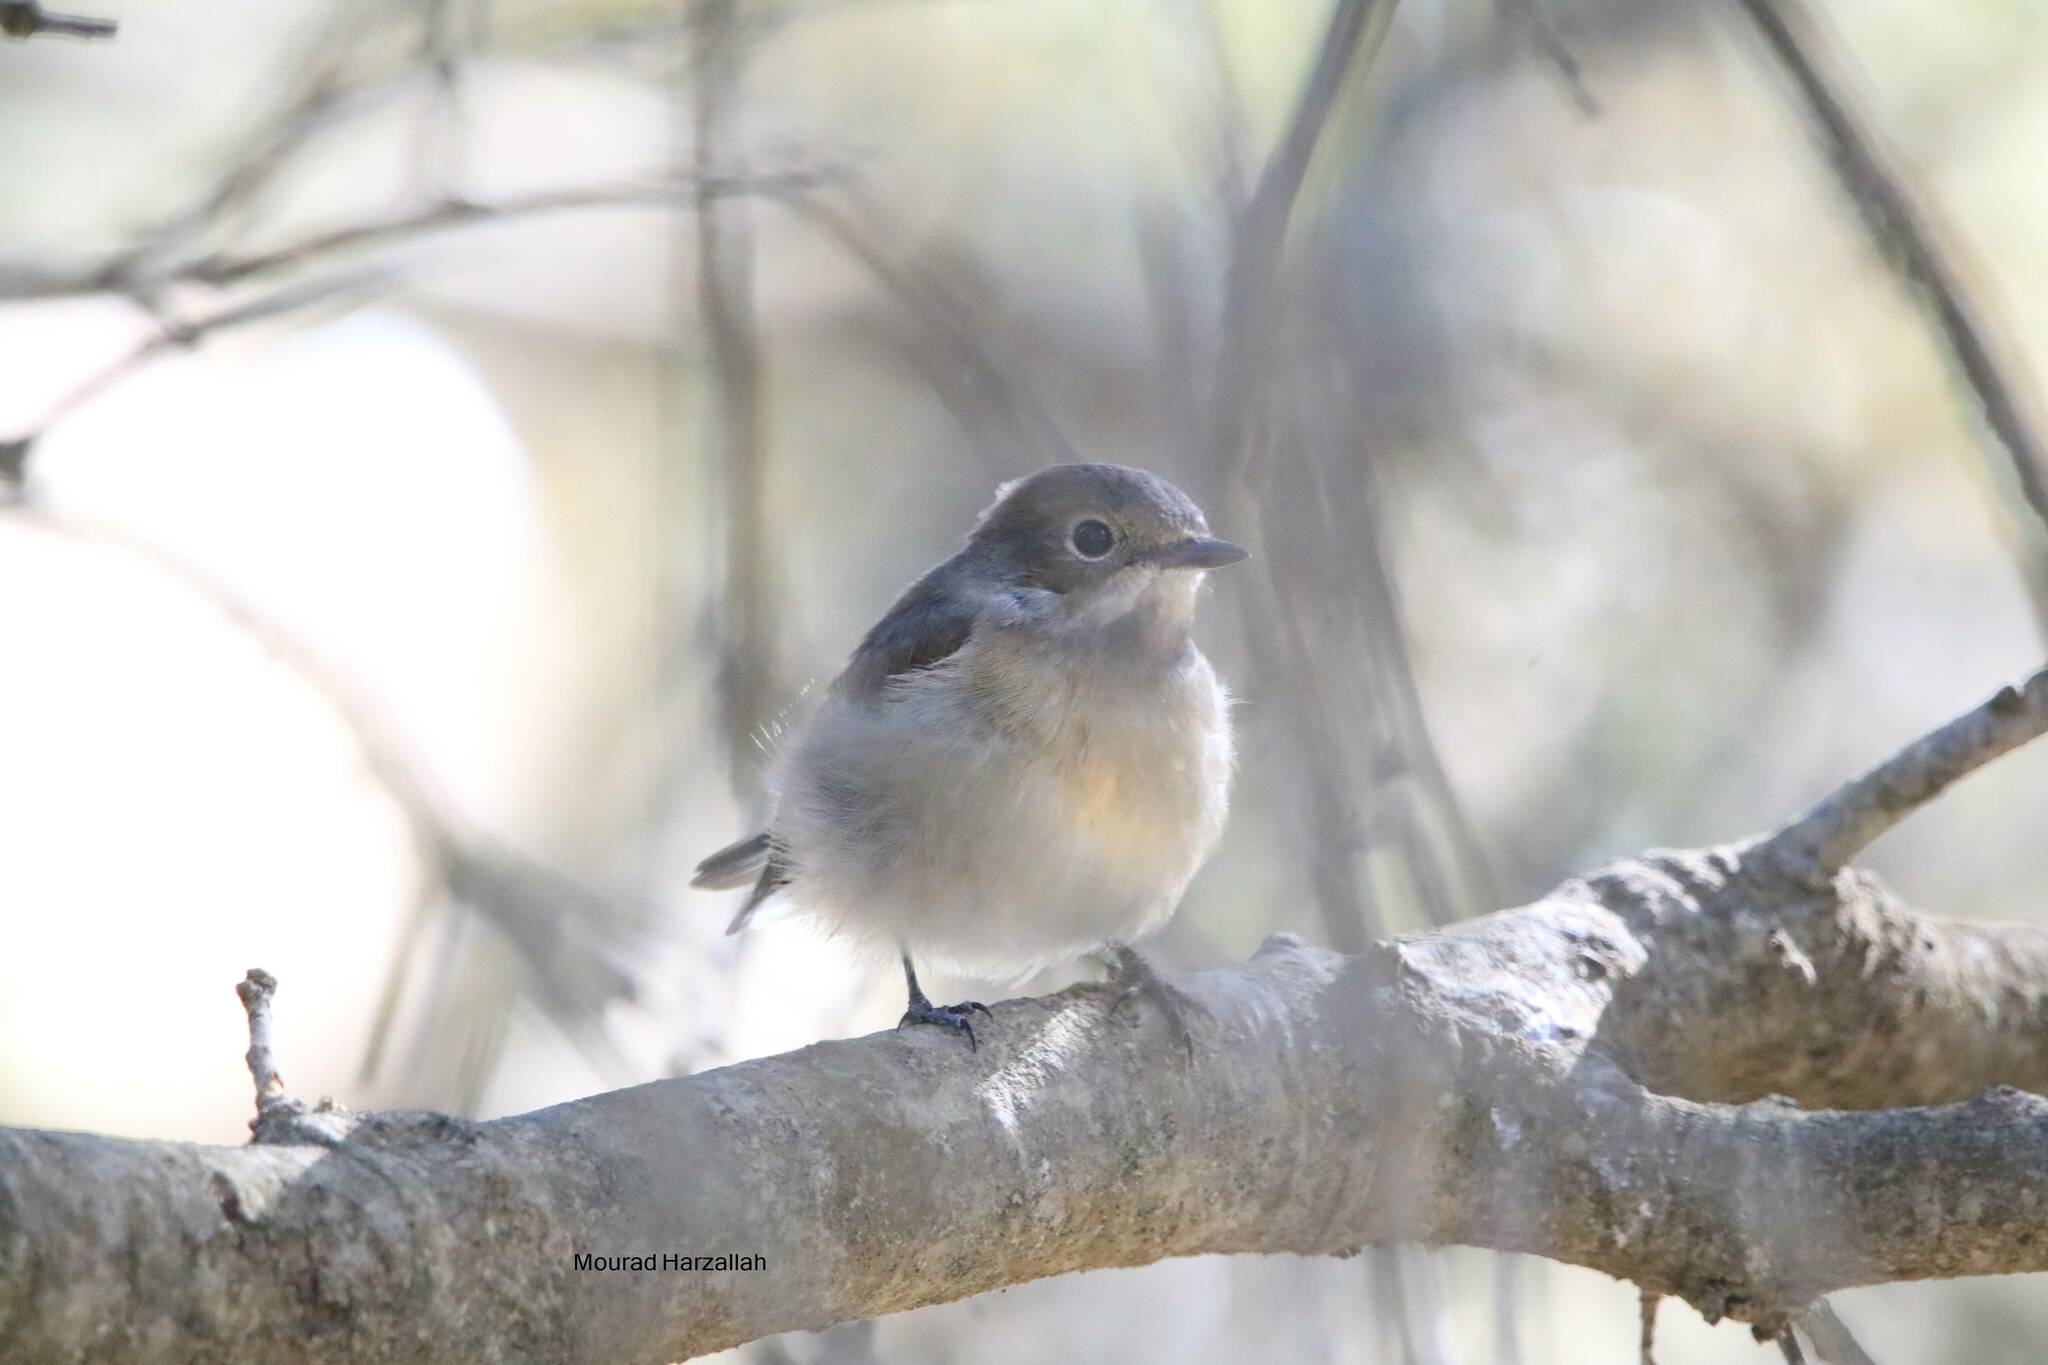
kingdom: Animalia
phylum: Chordata
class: Aves
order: Passeriformes
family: Muscicapidae
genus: Ficedula
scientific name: Ficedula speculigera
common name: Atlas pied flycatcher
